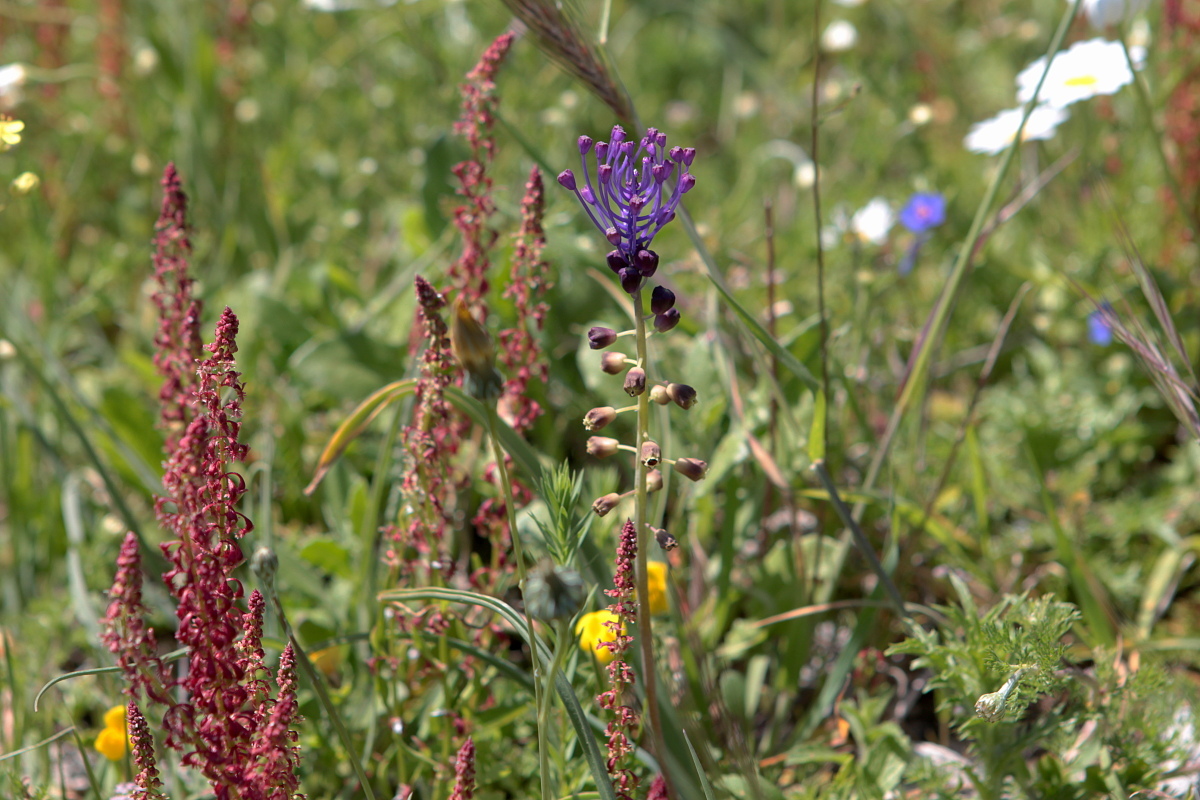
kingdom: Plantae
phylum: Tracheophyta
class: Liliopsida
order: Asparagales
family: Asparagaceae
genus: Muscari
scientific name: Muscari comosum
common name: Tassel hyacinth
